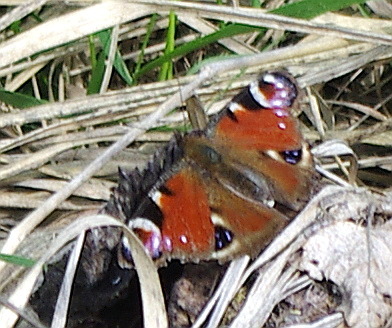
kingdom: Animalia
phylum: Arthropoda
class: Insecta
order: Lepidoptera
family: Nymphalidae
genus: Aglais
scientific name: Aglais io
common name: Peacock
